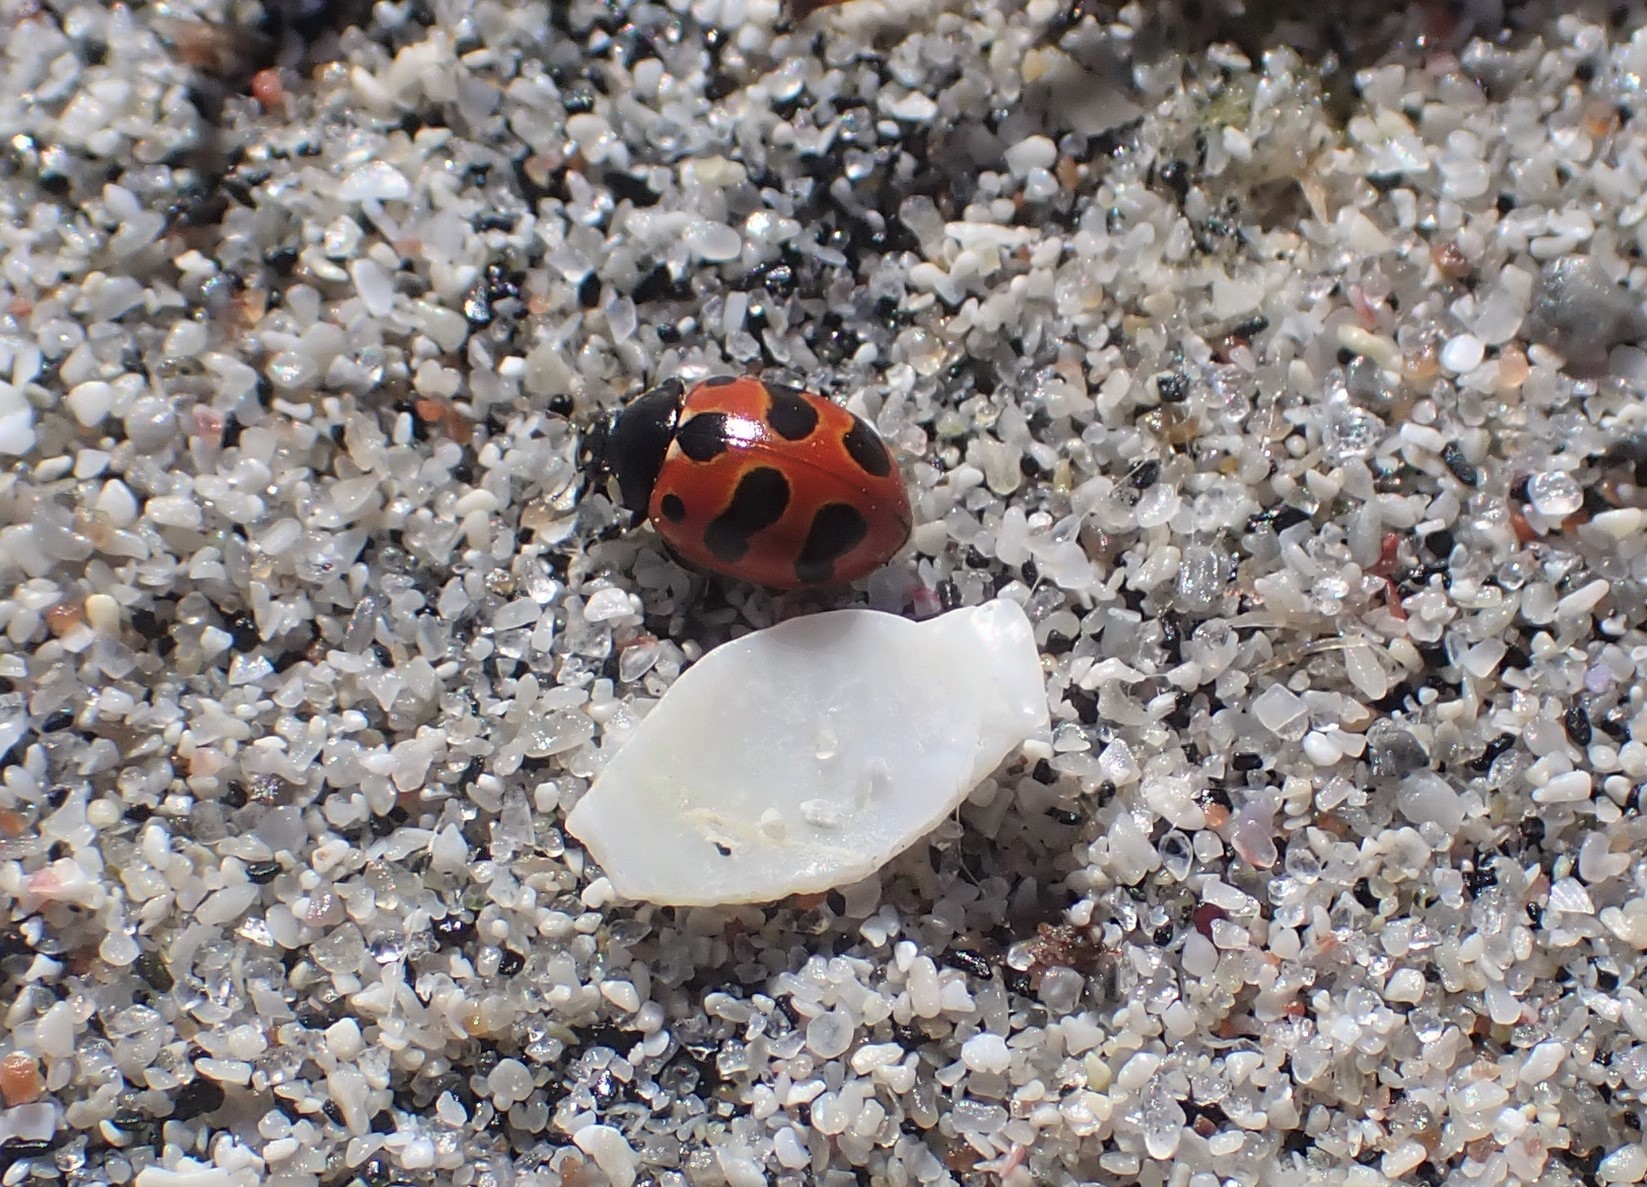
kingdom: Animalia
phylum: Arthropoda
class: Insecta
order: Coleoptera
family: Coccinellidae
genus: Coccinella
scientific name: Coccinella undecimpunctata
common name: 11-spot ladybird
